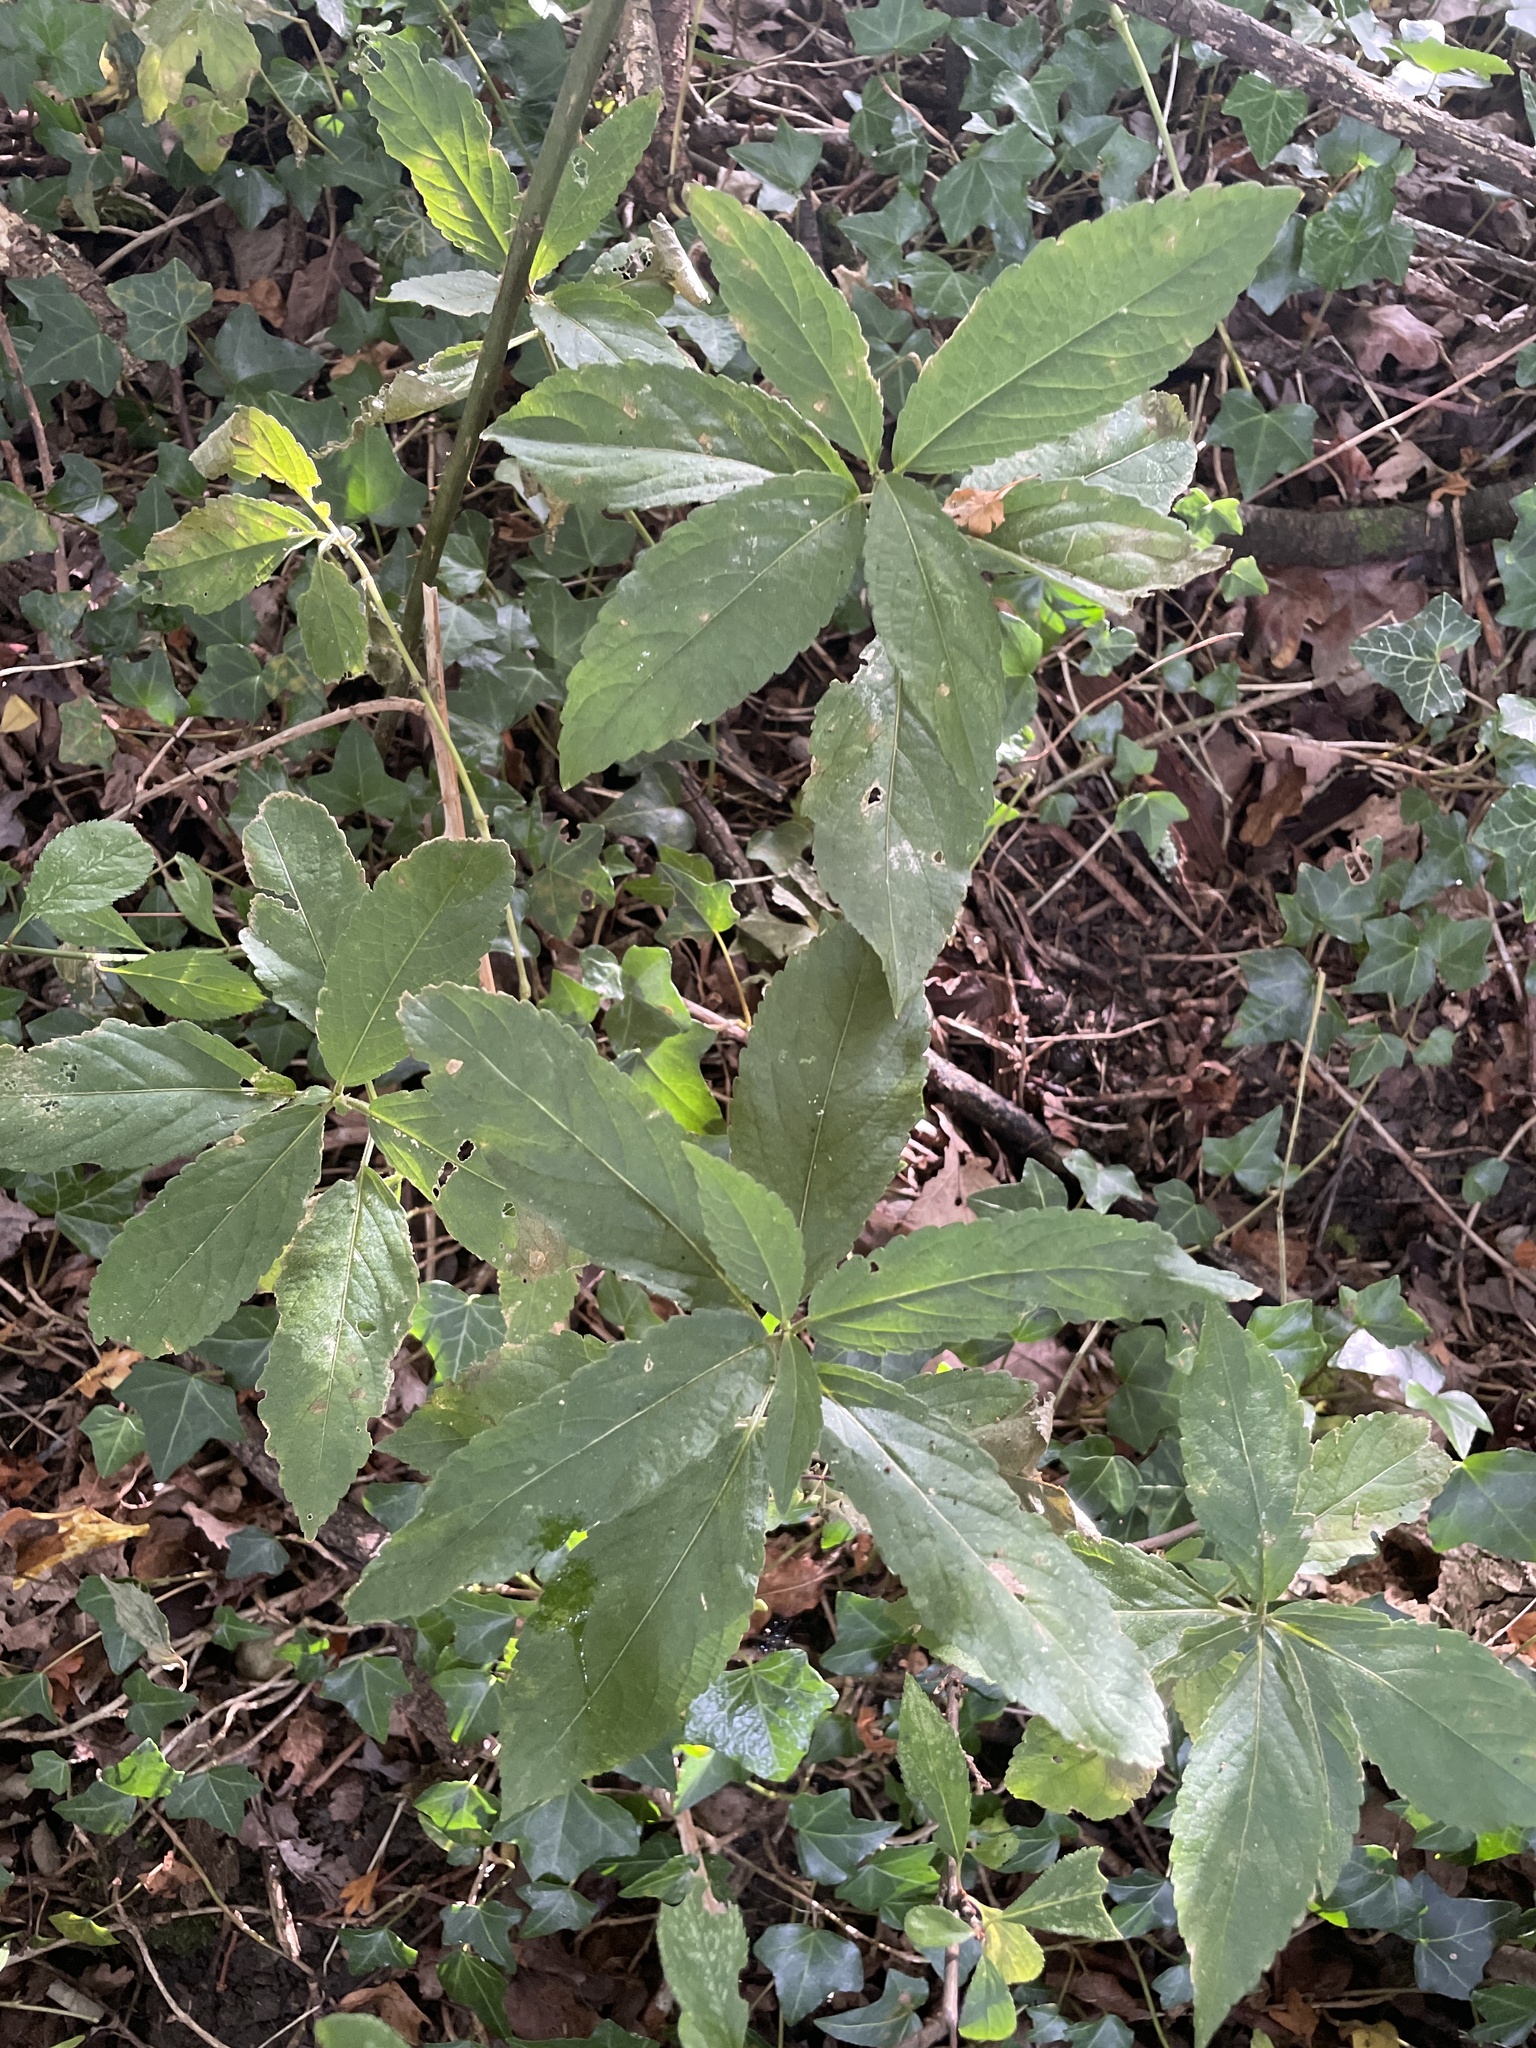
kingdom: Plantae
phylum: Tracheophyta
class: Magnoliopsida
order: Malpighiales
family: Euphorbiaceae
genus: Mercurialis
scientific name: Mercurialis perennis
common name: Dog mercury
